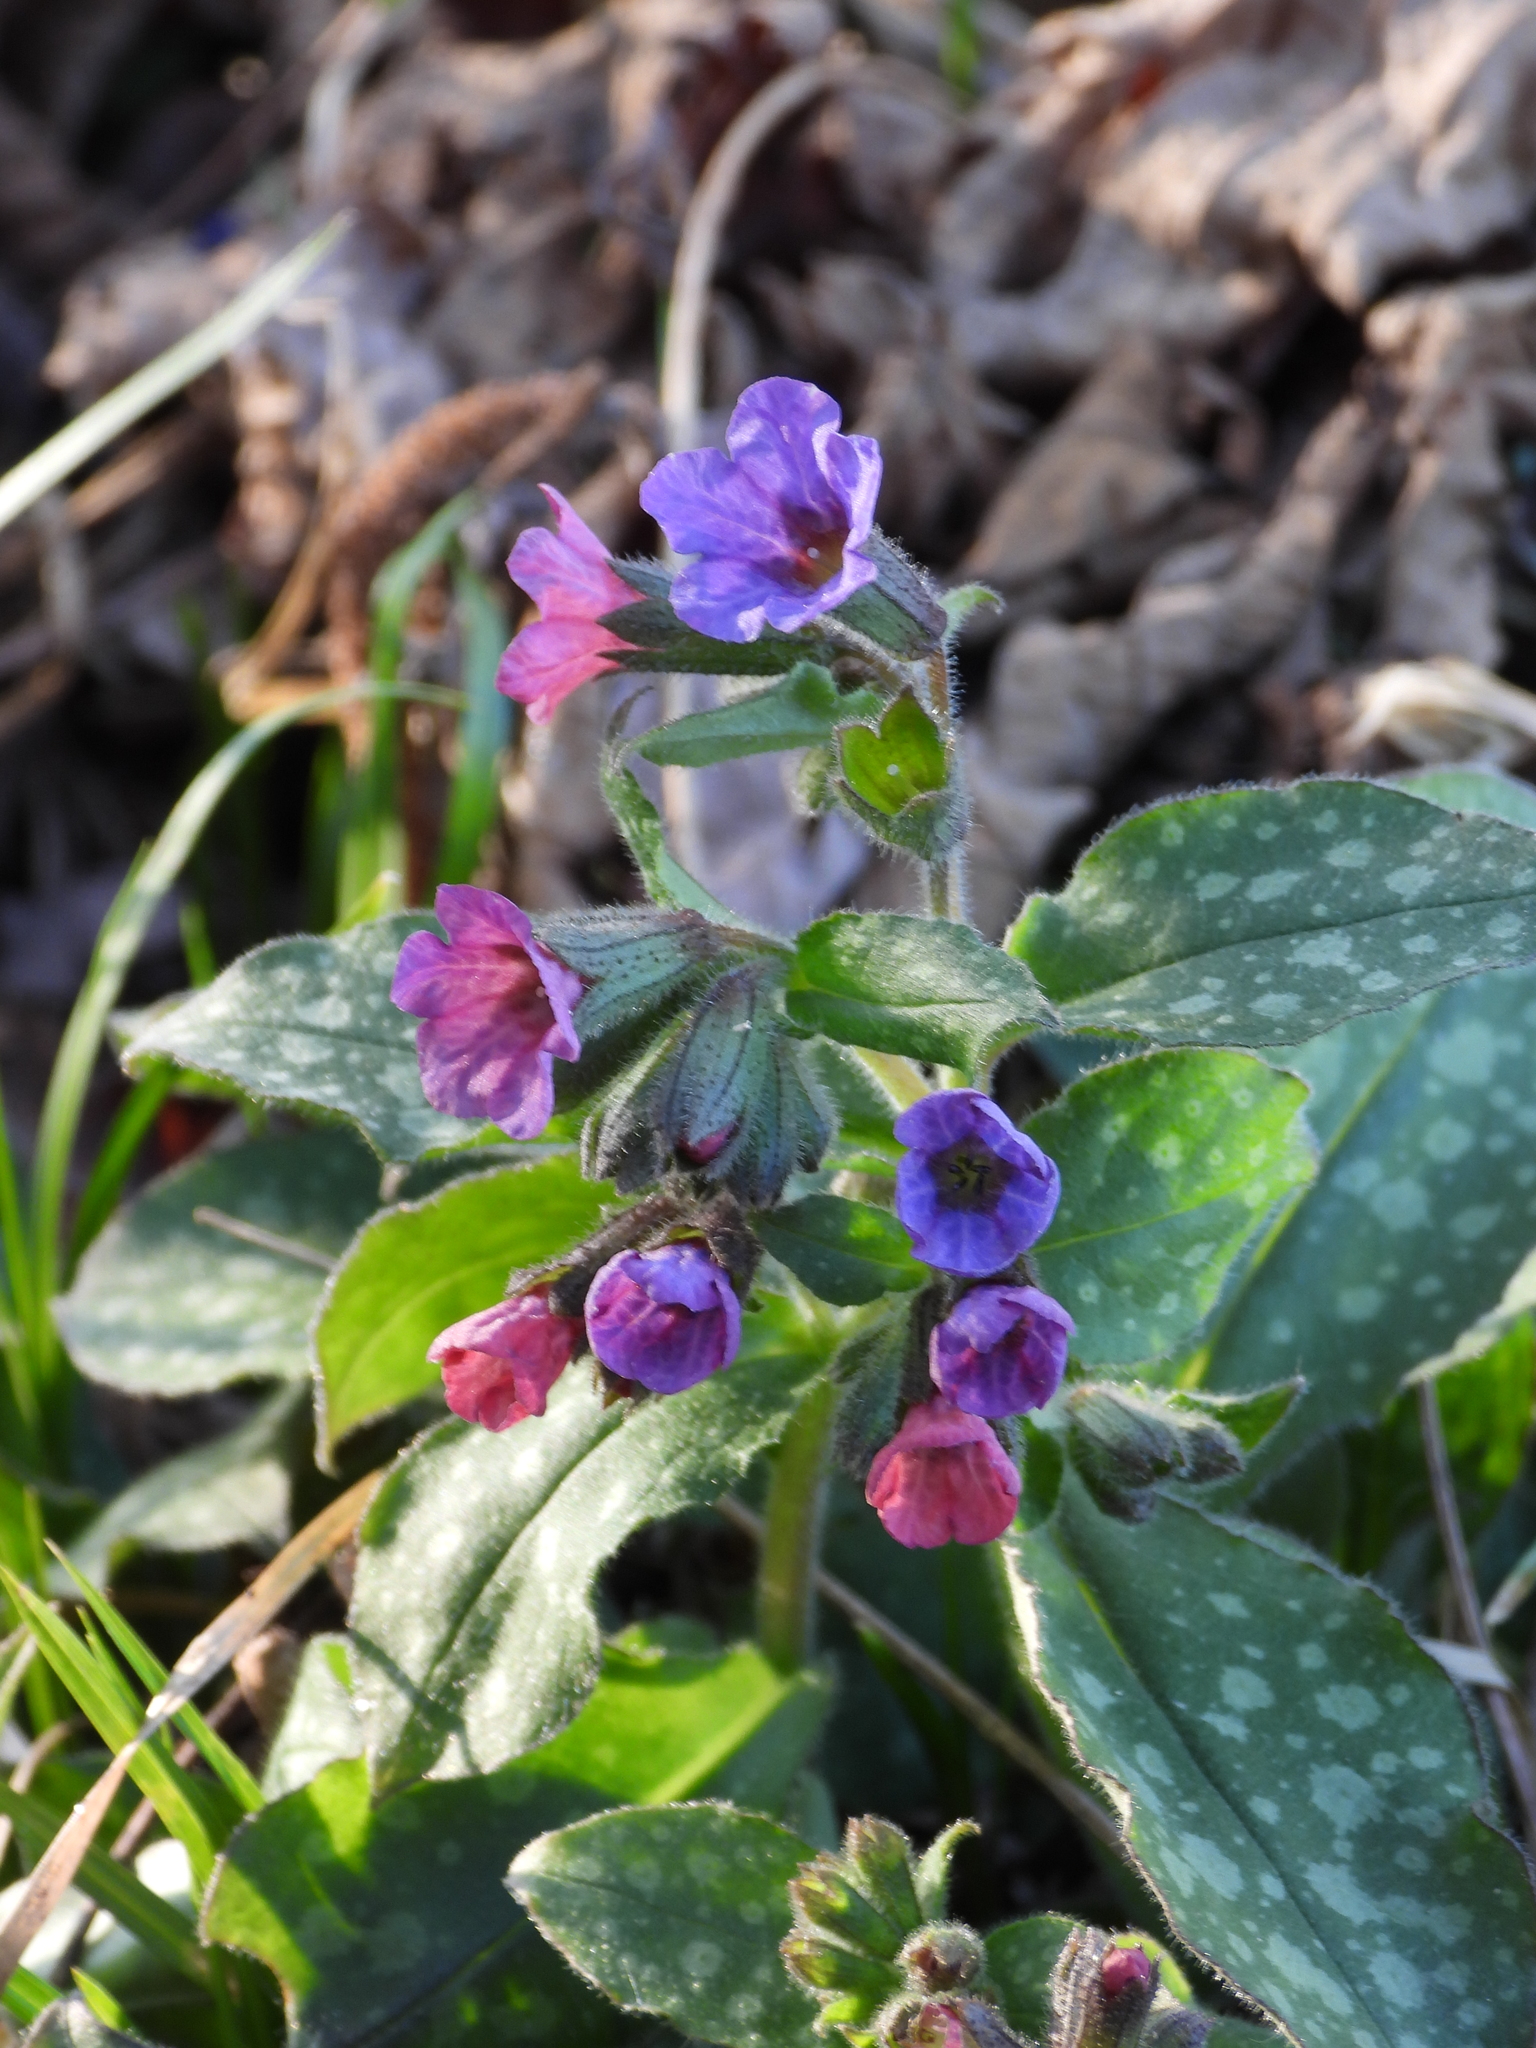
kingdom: Plantae
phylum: Tracheophyta
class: Magnoliopsida
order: Boraginales
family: Boraginaceae
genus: Pulmonaria
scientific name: Pulmonaria officinalis
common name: Lungwort
